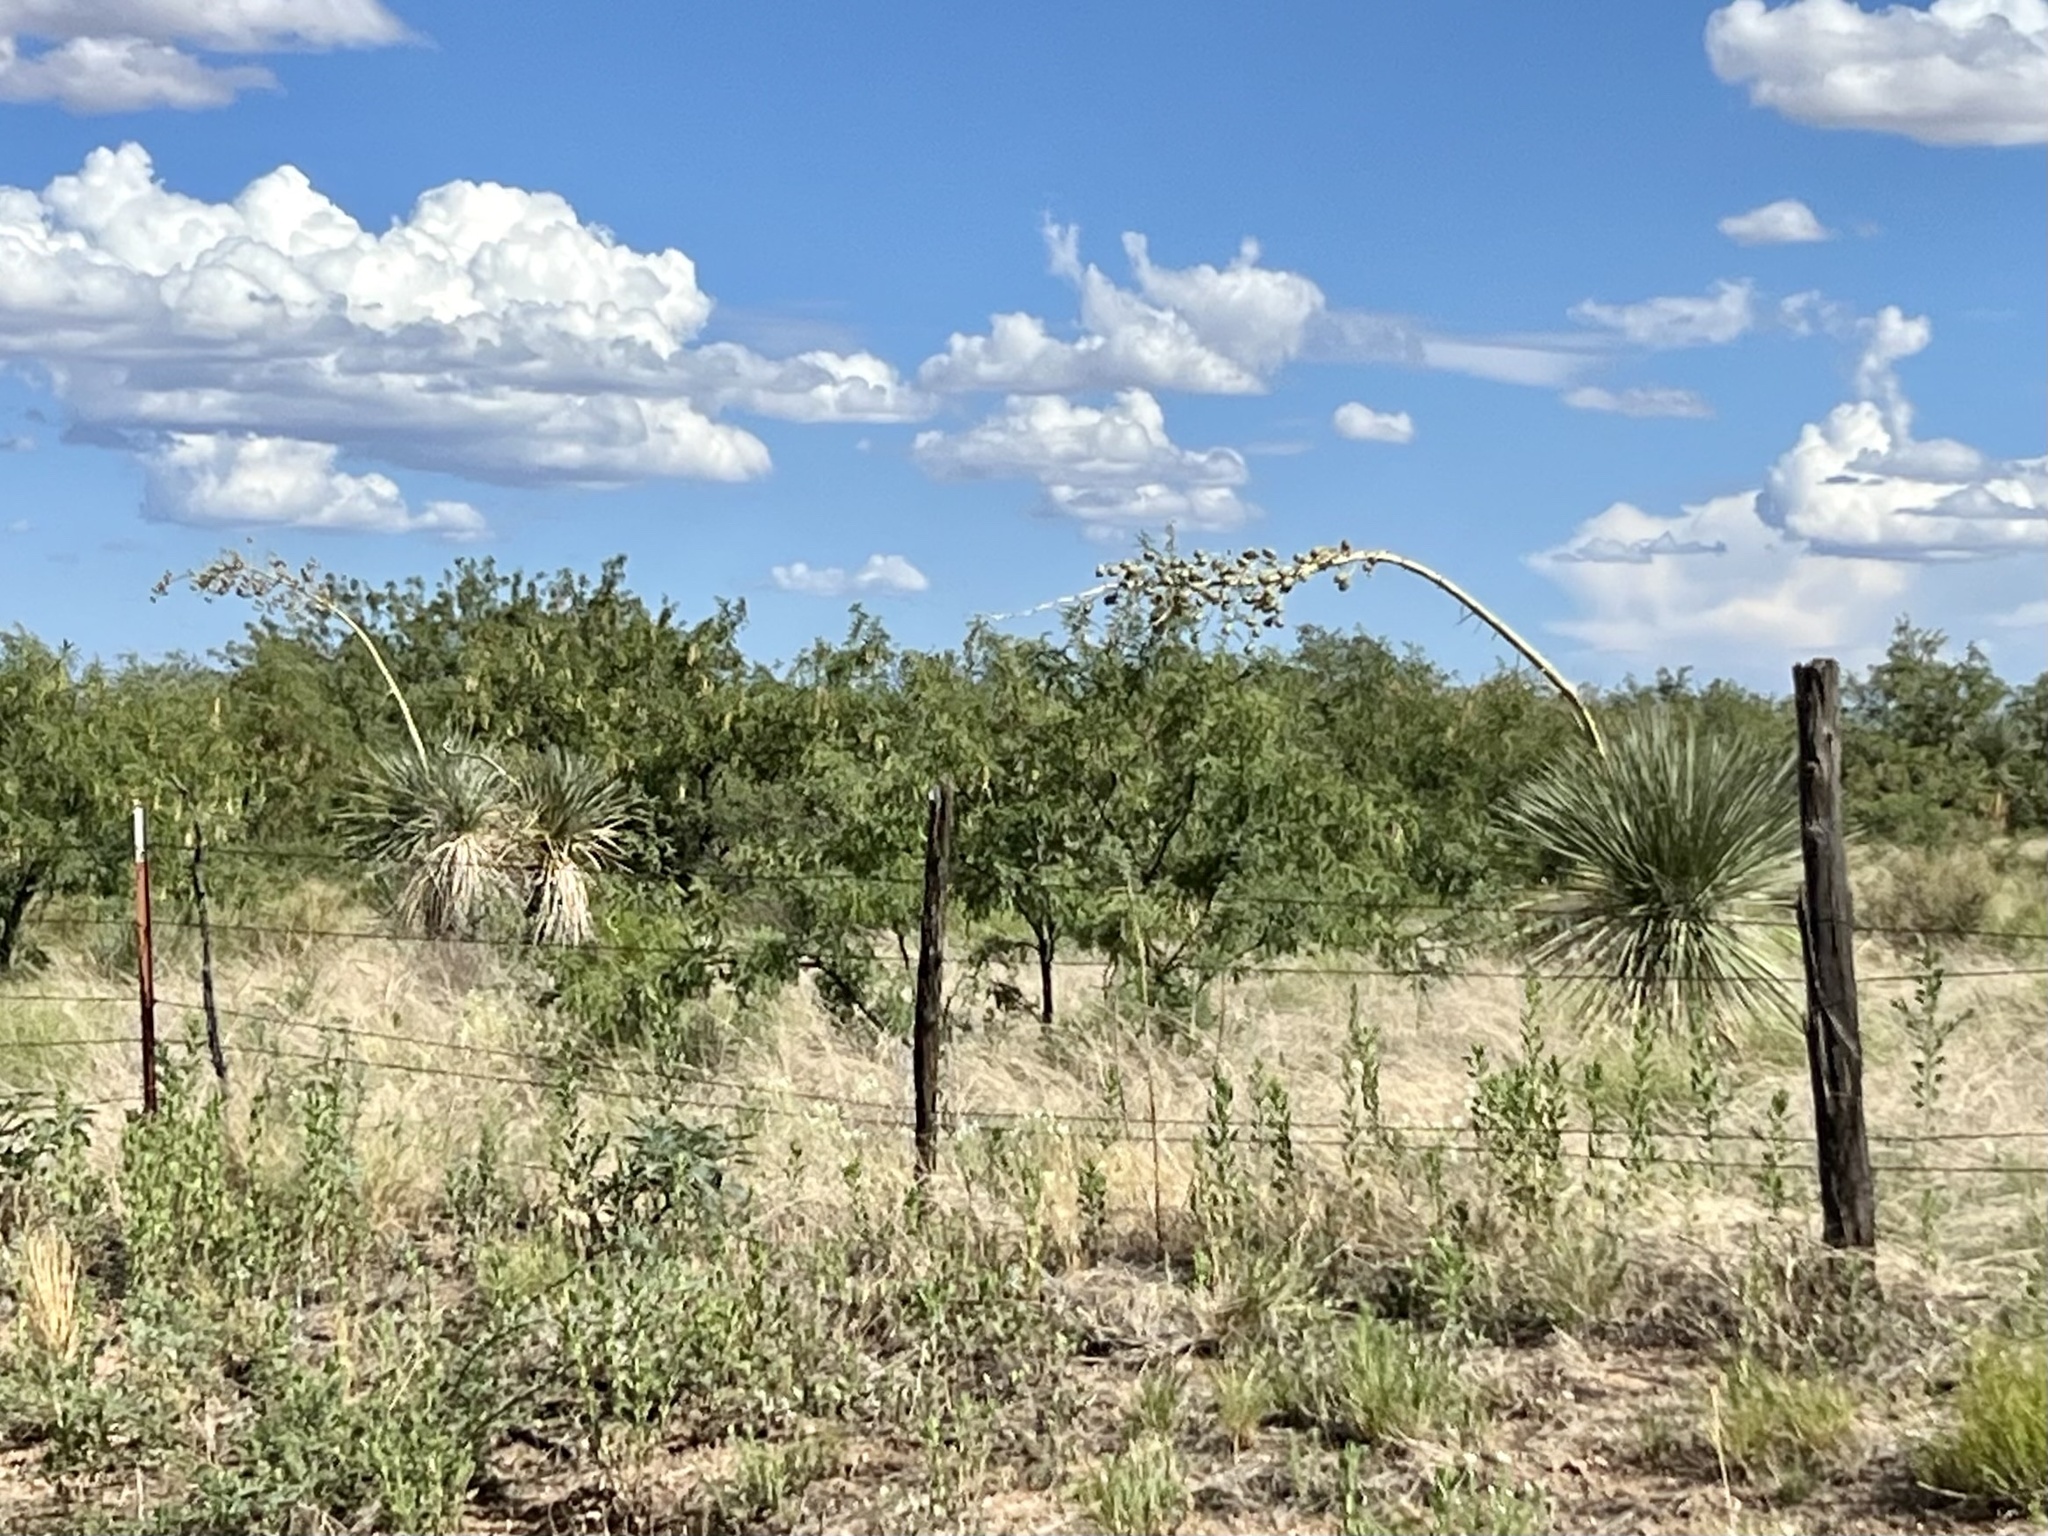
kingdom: Plantae
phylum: Tracheophyta
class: Liliopsida
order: Asparagales
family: Asparagaceae
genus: Yucca
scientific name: Yucca elata
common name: Palmella
